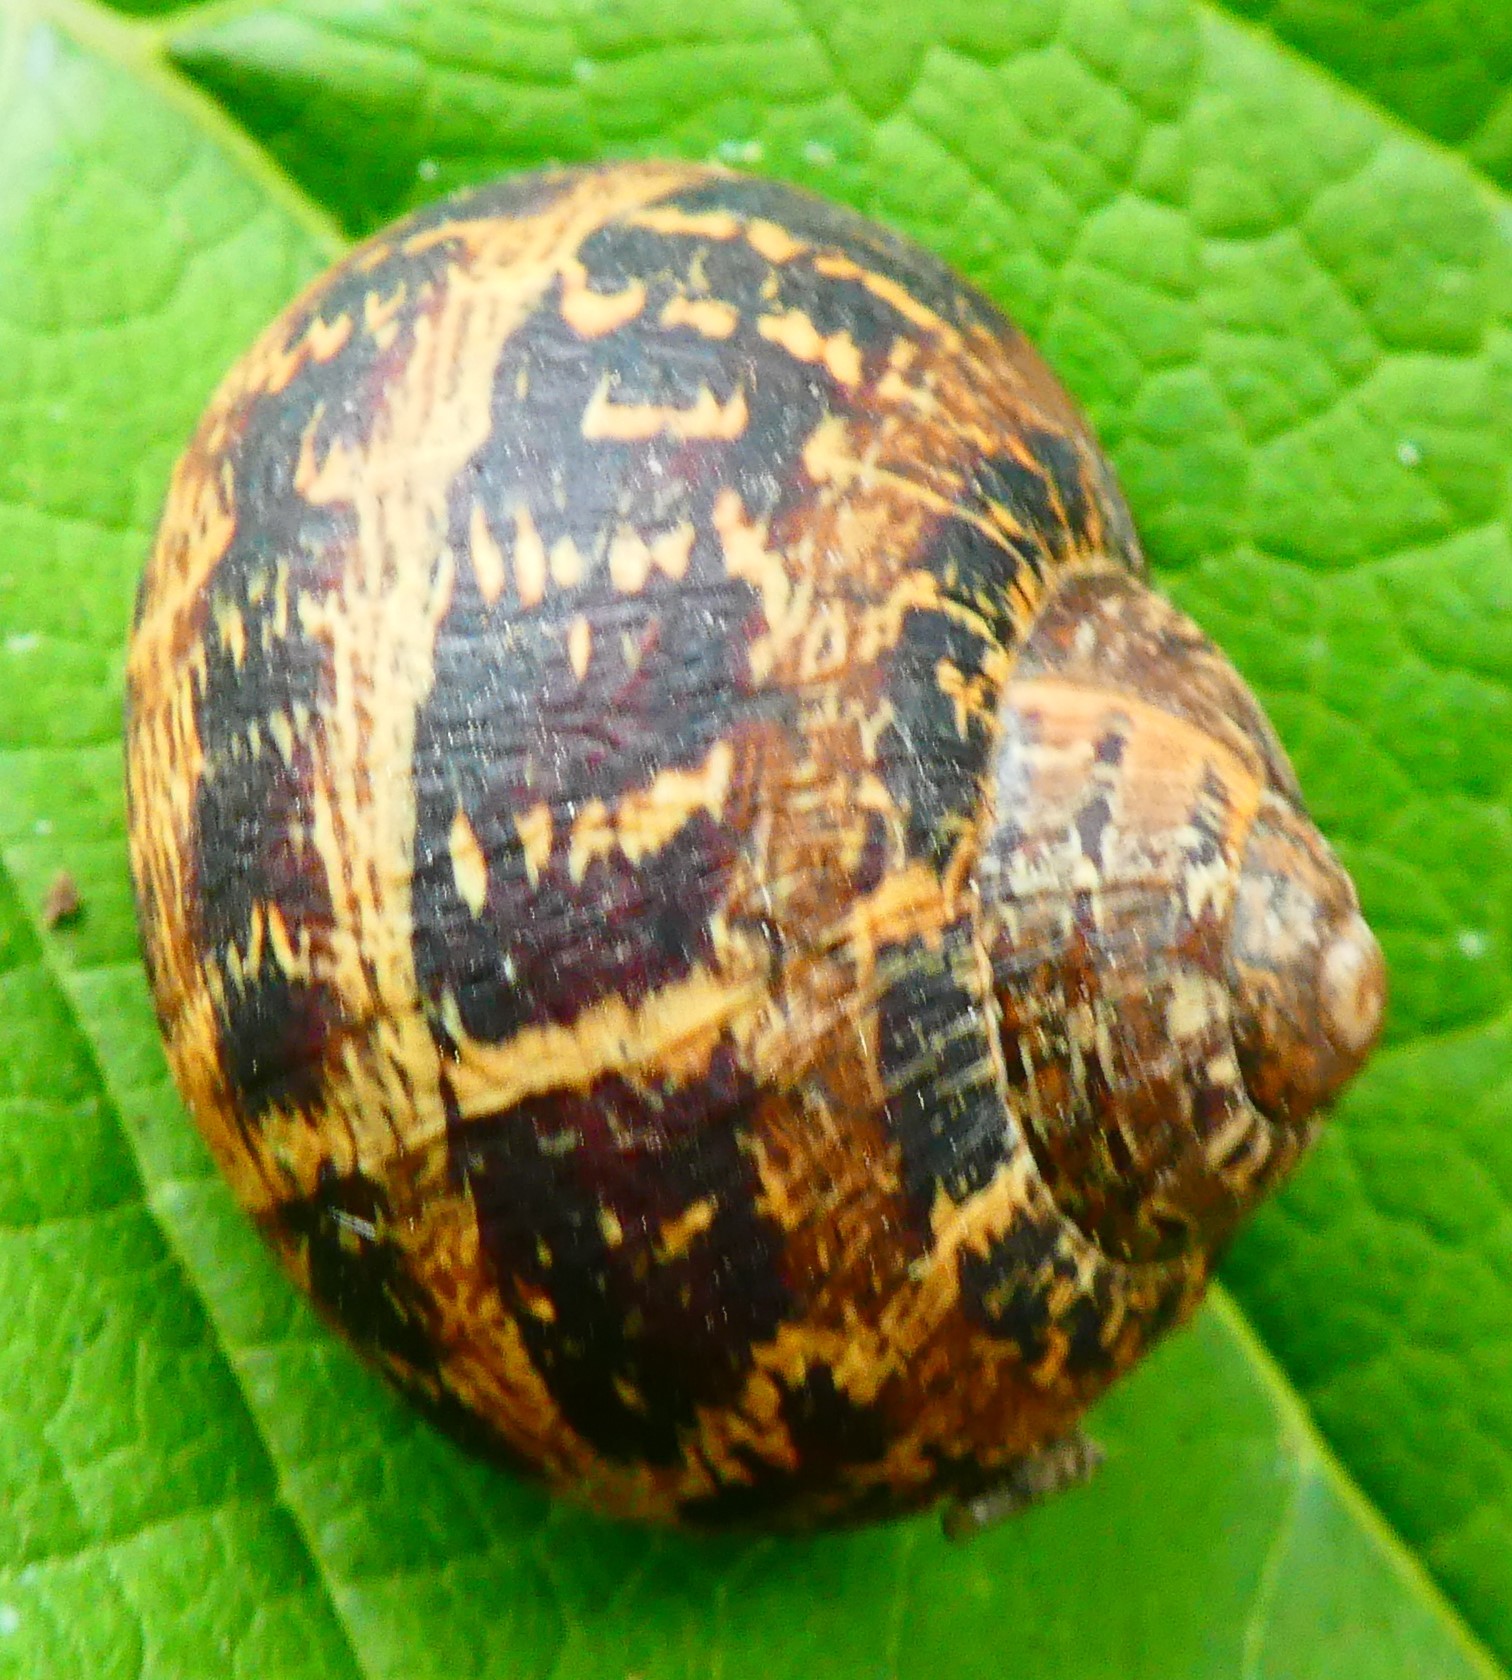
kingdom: Animalia
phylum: Mollusca
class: Gastropoda
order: Stylommatophora
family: Helicidae
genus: Cornu
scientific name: Cornu aspersum
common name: Brown garden snail
